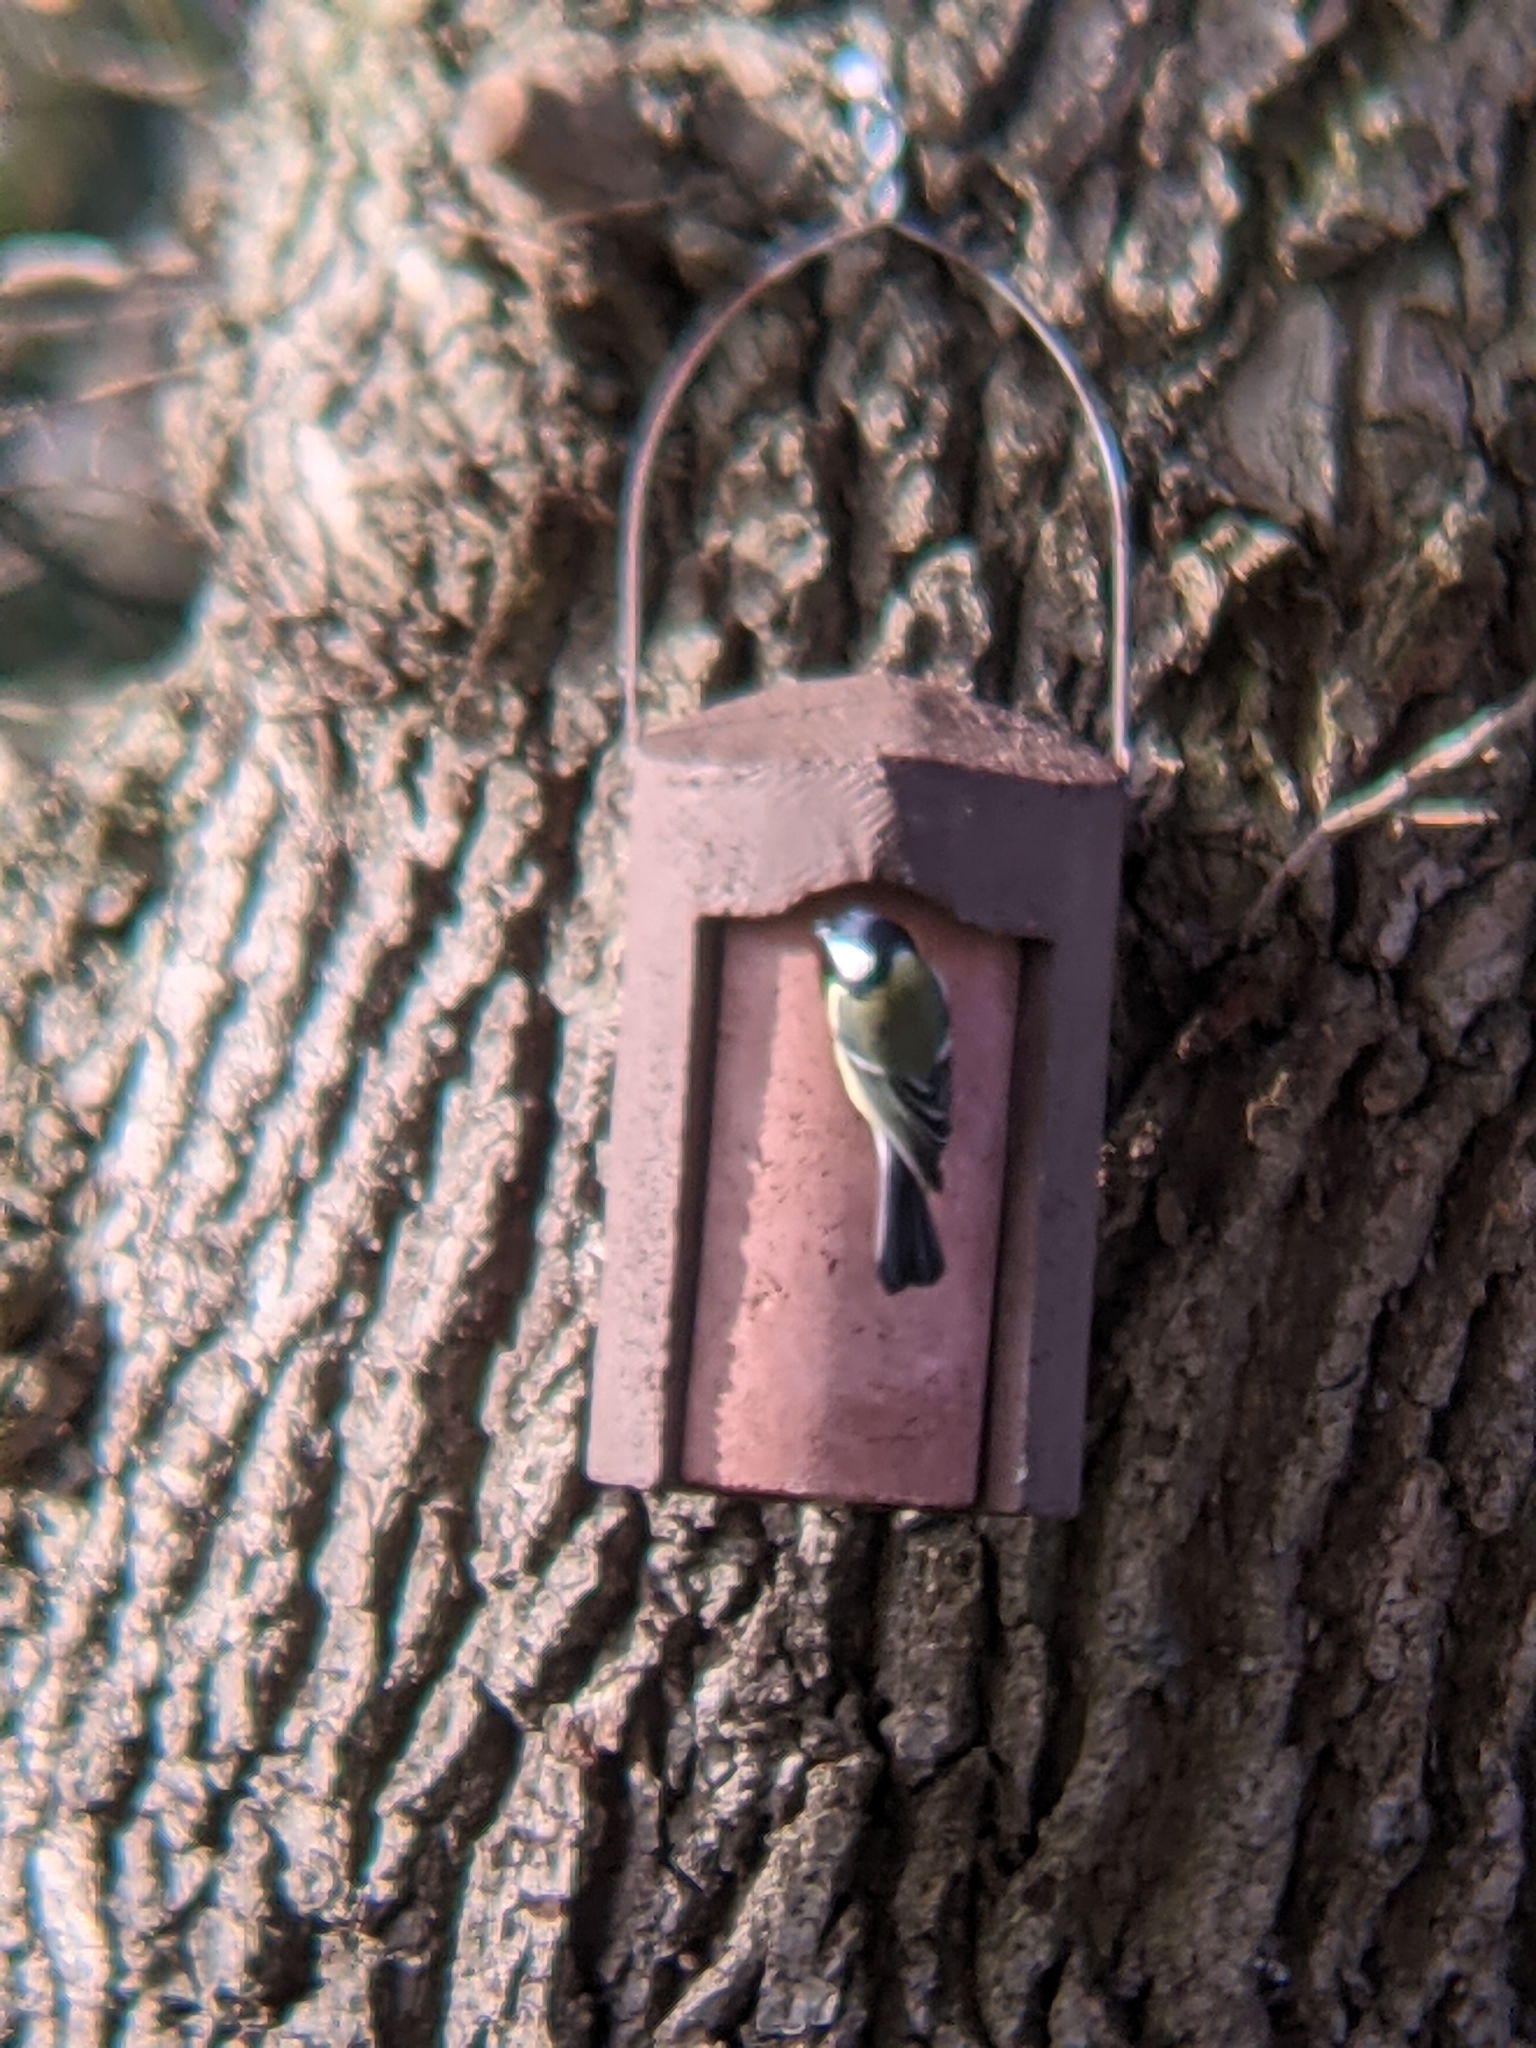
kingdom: Animalia
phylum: Chordata
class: Aves
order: Passeriformes
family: Paridae
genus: Parus
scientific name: Parus major
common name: Great tit
